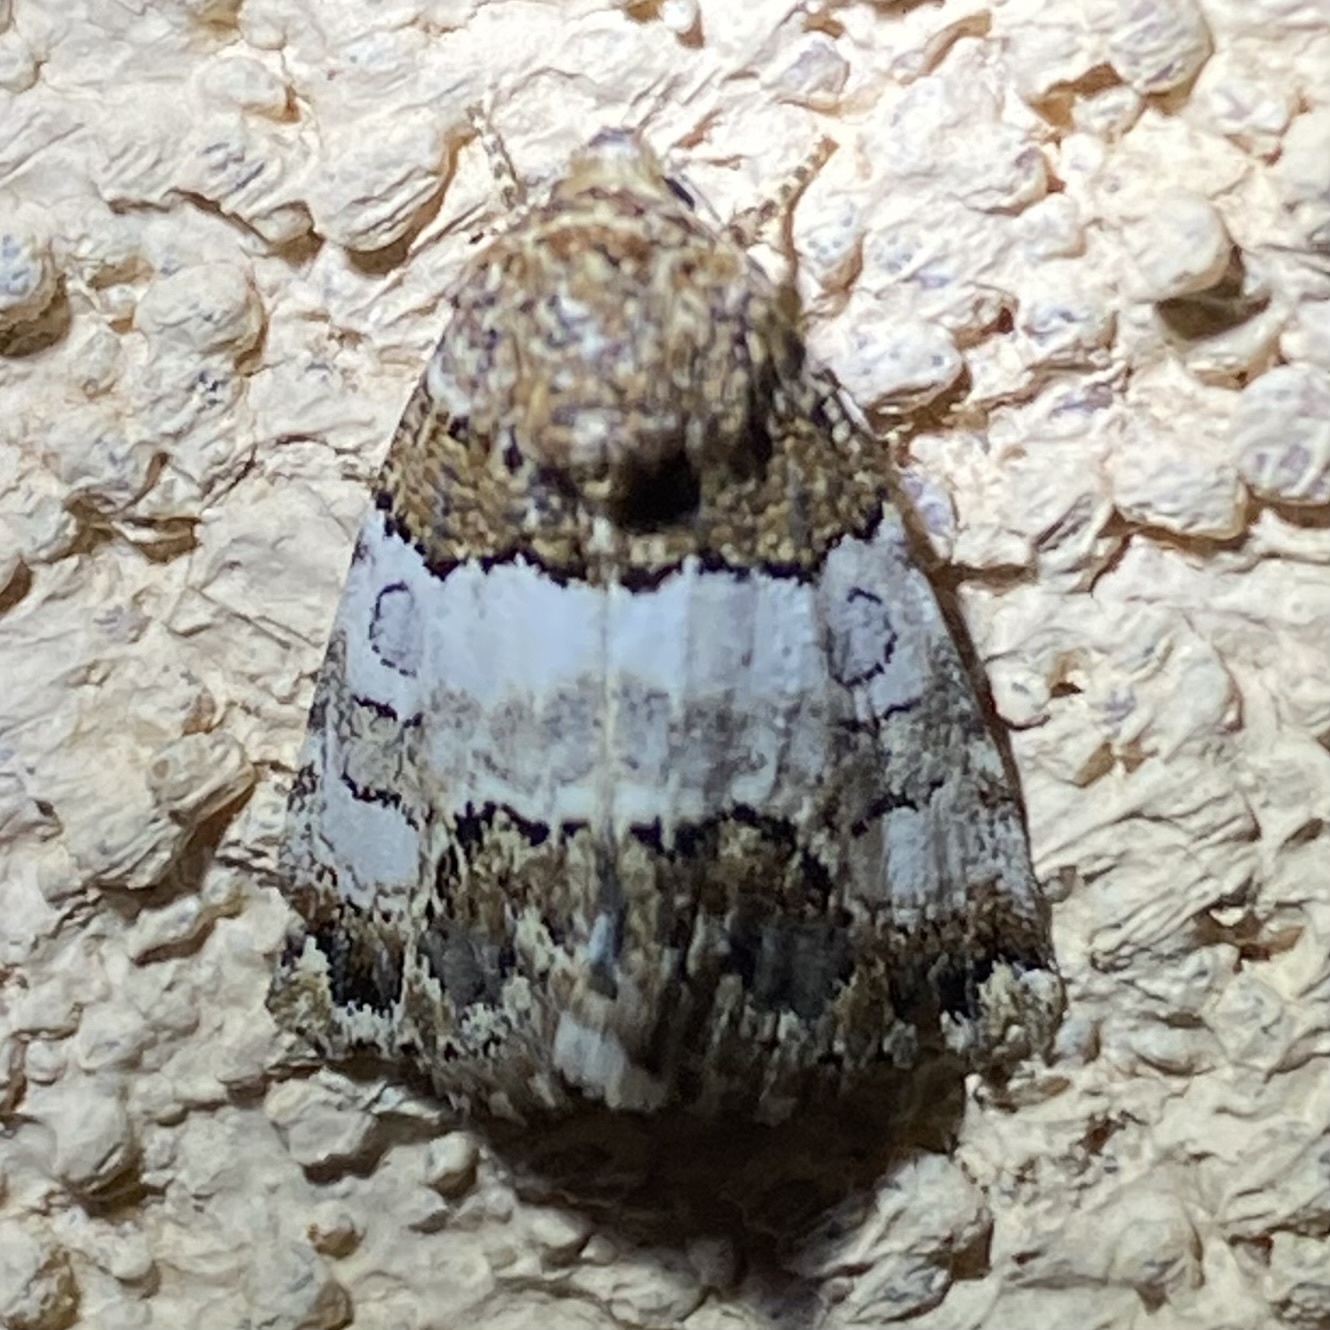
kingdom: Animalia
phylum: Arthropoda
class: Insecta
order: Lepidoptera
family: Noctuidae
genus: Schinia
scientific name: Schinia albafascia
